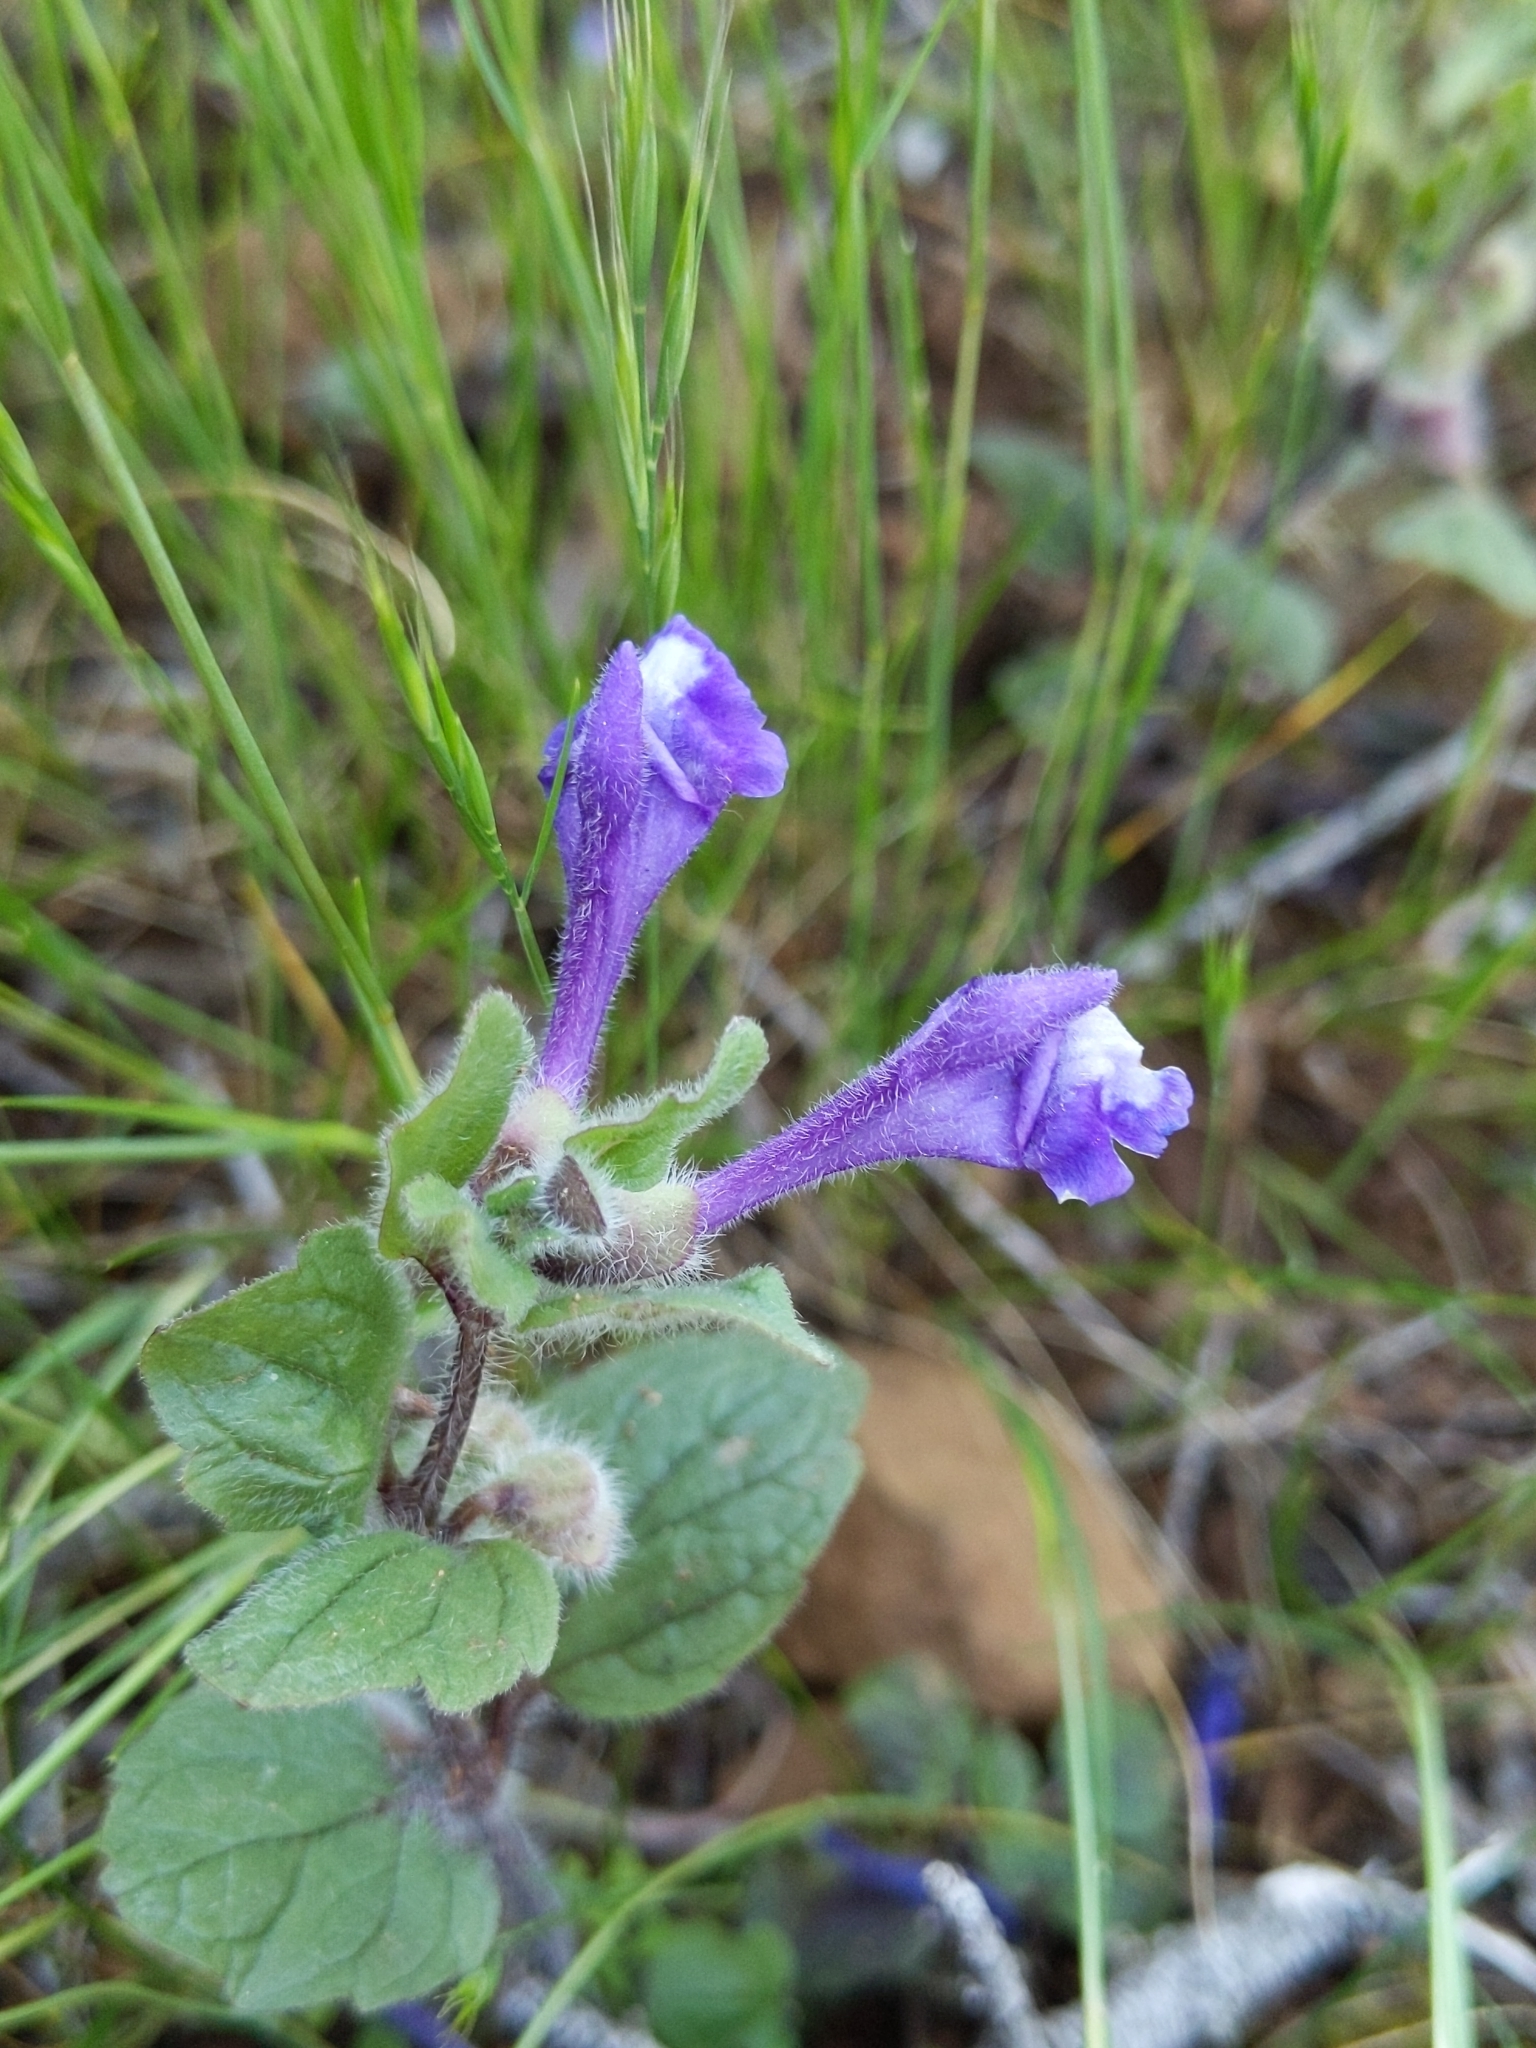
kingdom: Plantae
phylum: Tracheophyta
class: Magnoliopsida
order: Lamiales
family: Lamiaceae
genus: Scutellaria
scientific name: Scutellaria tuberosa
